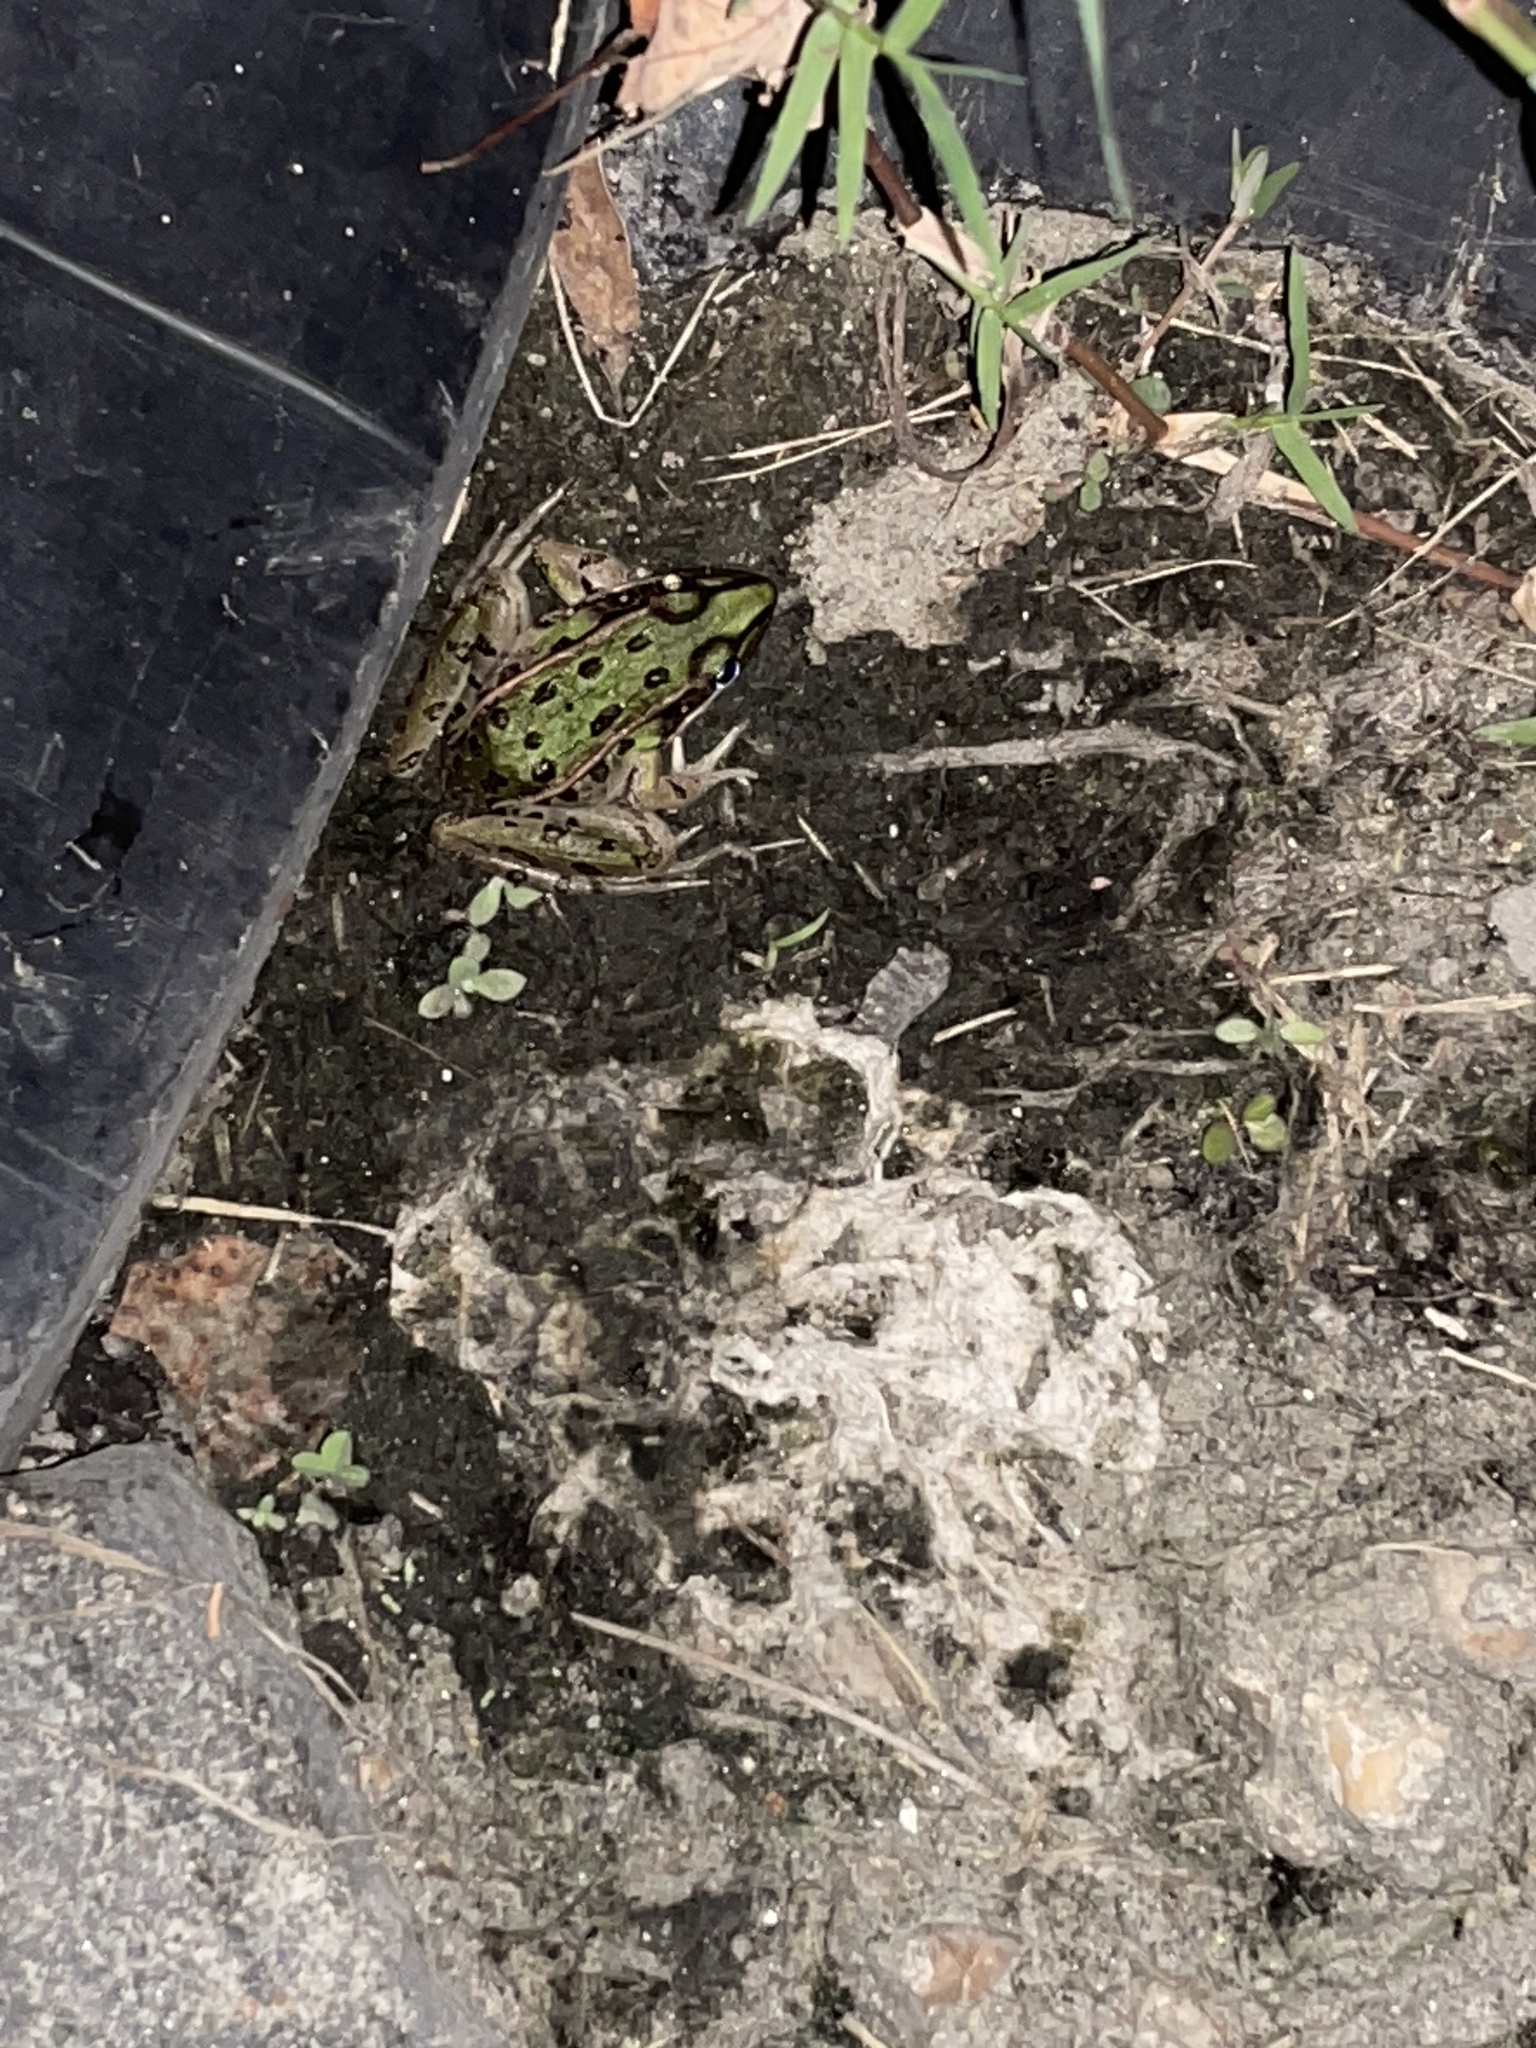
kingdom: Animalia
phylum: Chordata
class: Amphibia
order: Anura
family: Ranidae
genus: Lithobates
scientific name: Lithobates sphenocephalus
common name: Southern leopard frog
